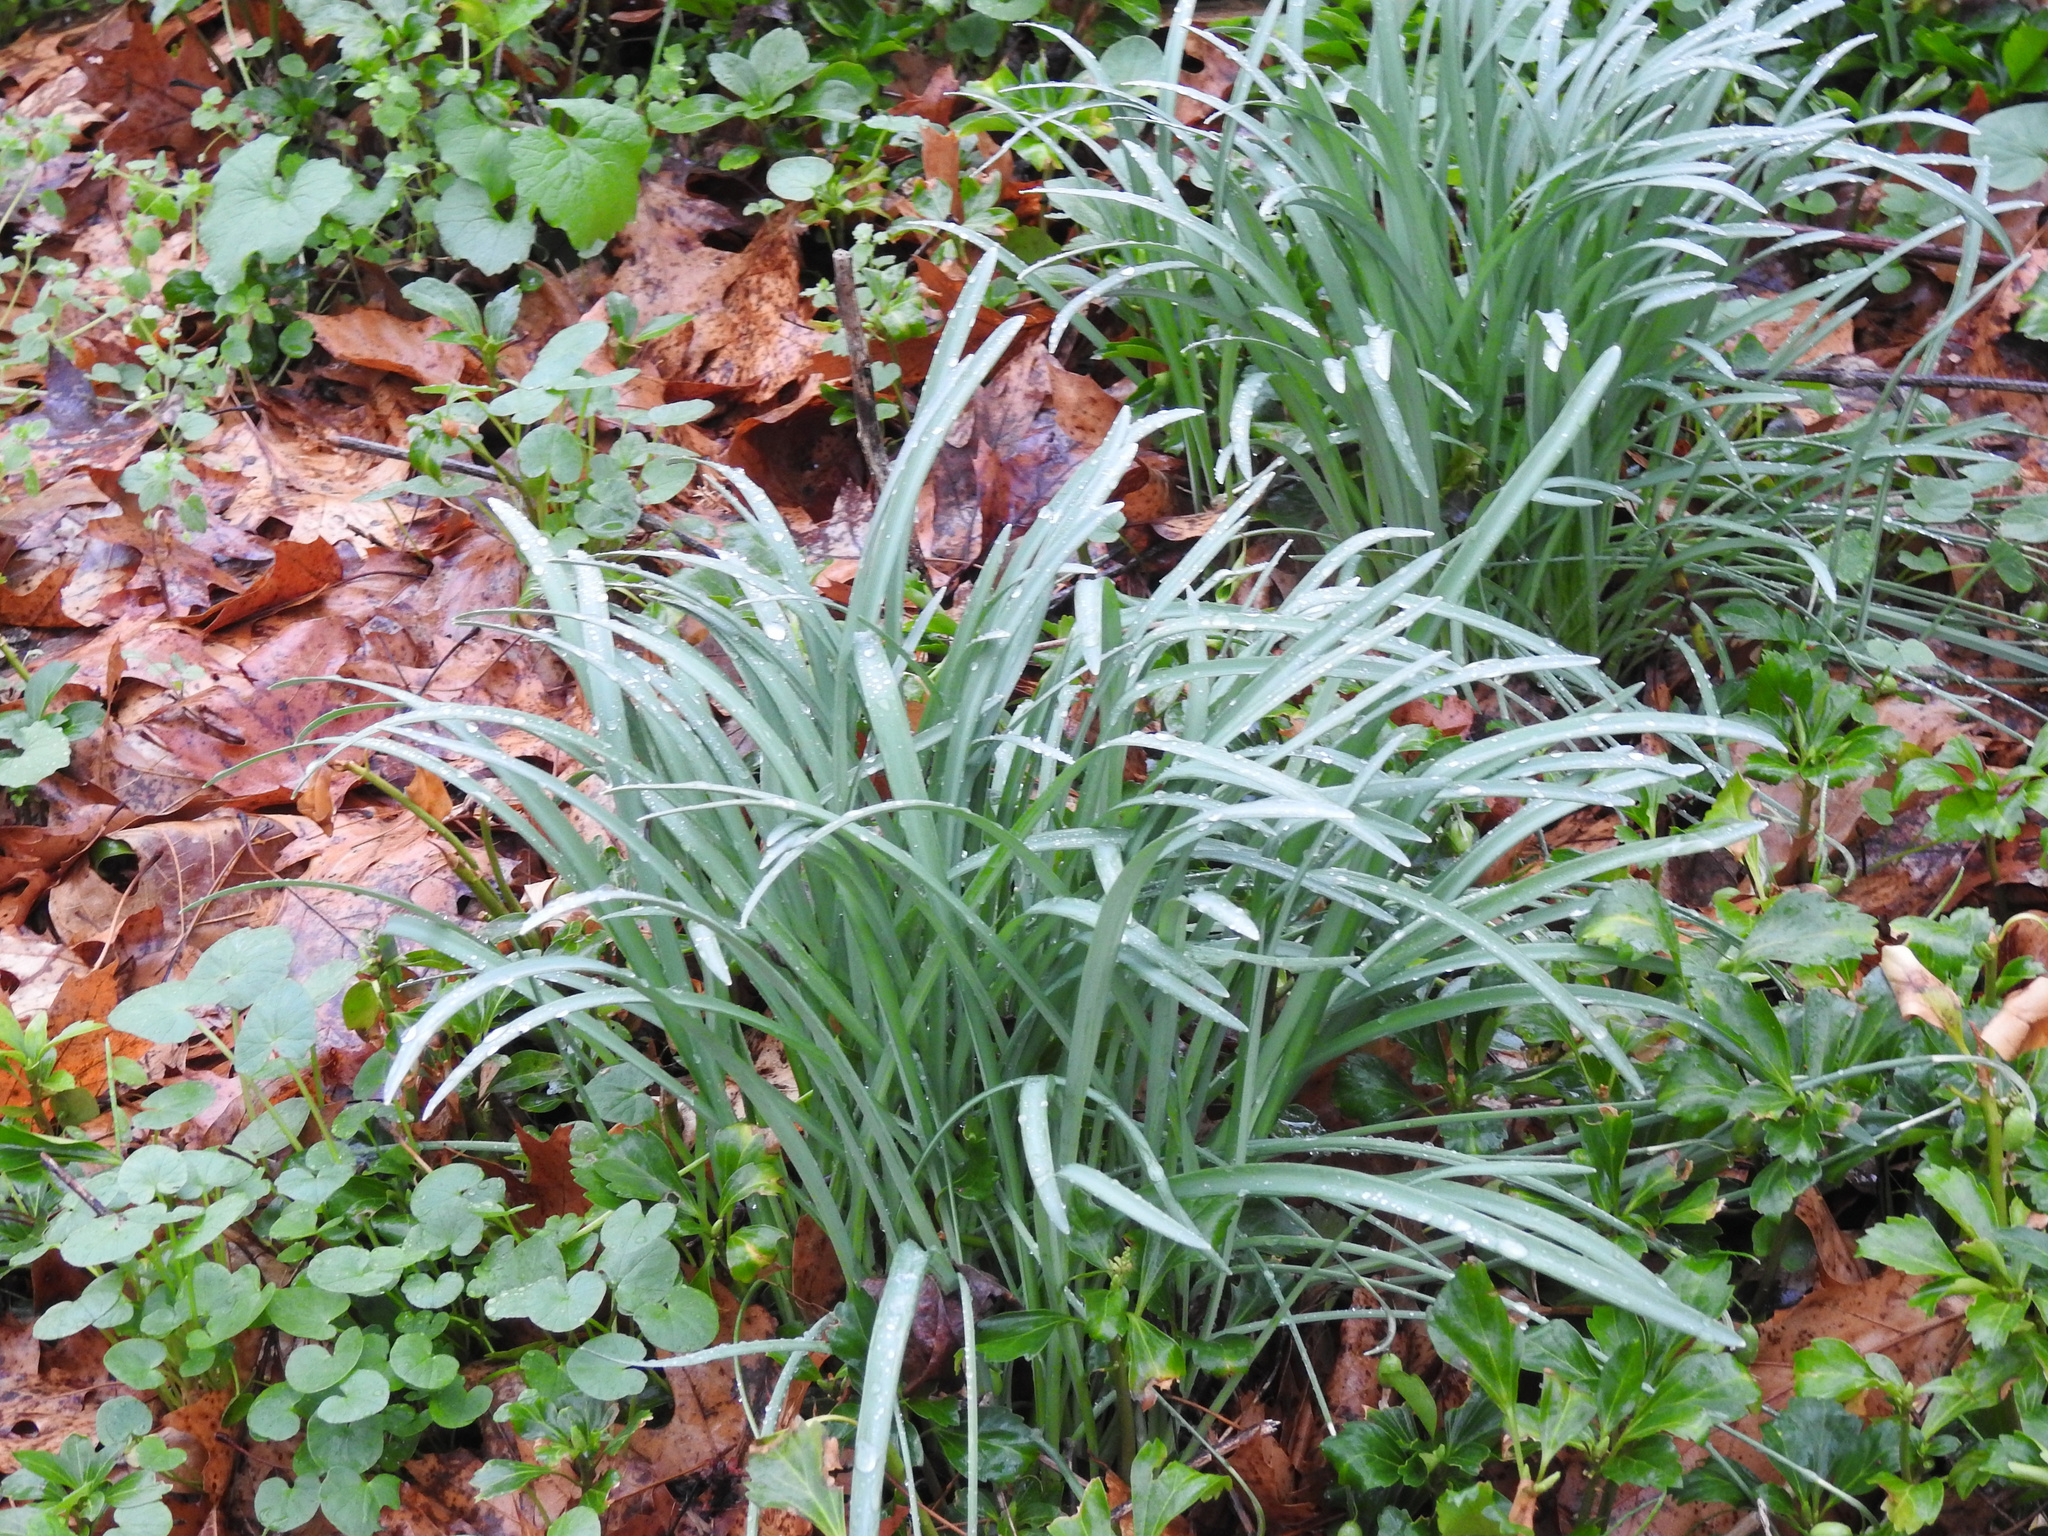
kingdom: Plantae
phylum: Tracheophyta
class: Liliopsida
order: Asparagales
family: Amaryllidaceae
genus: Galanthus
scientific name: Galanthus nivalis
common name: Snowdrop
